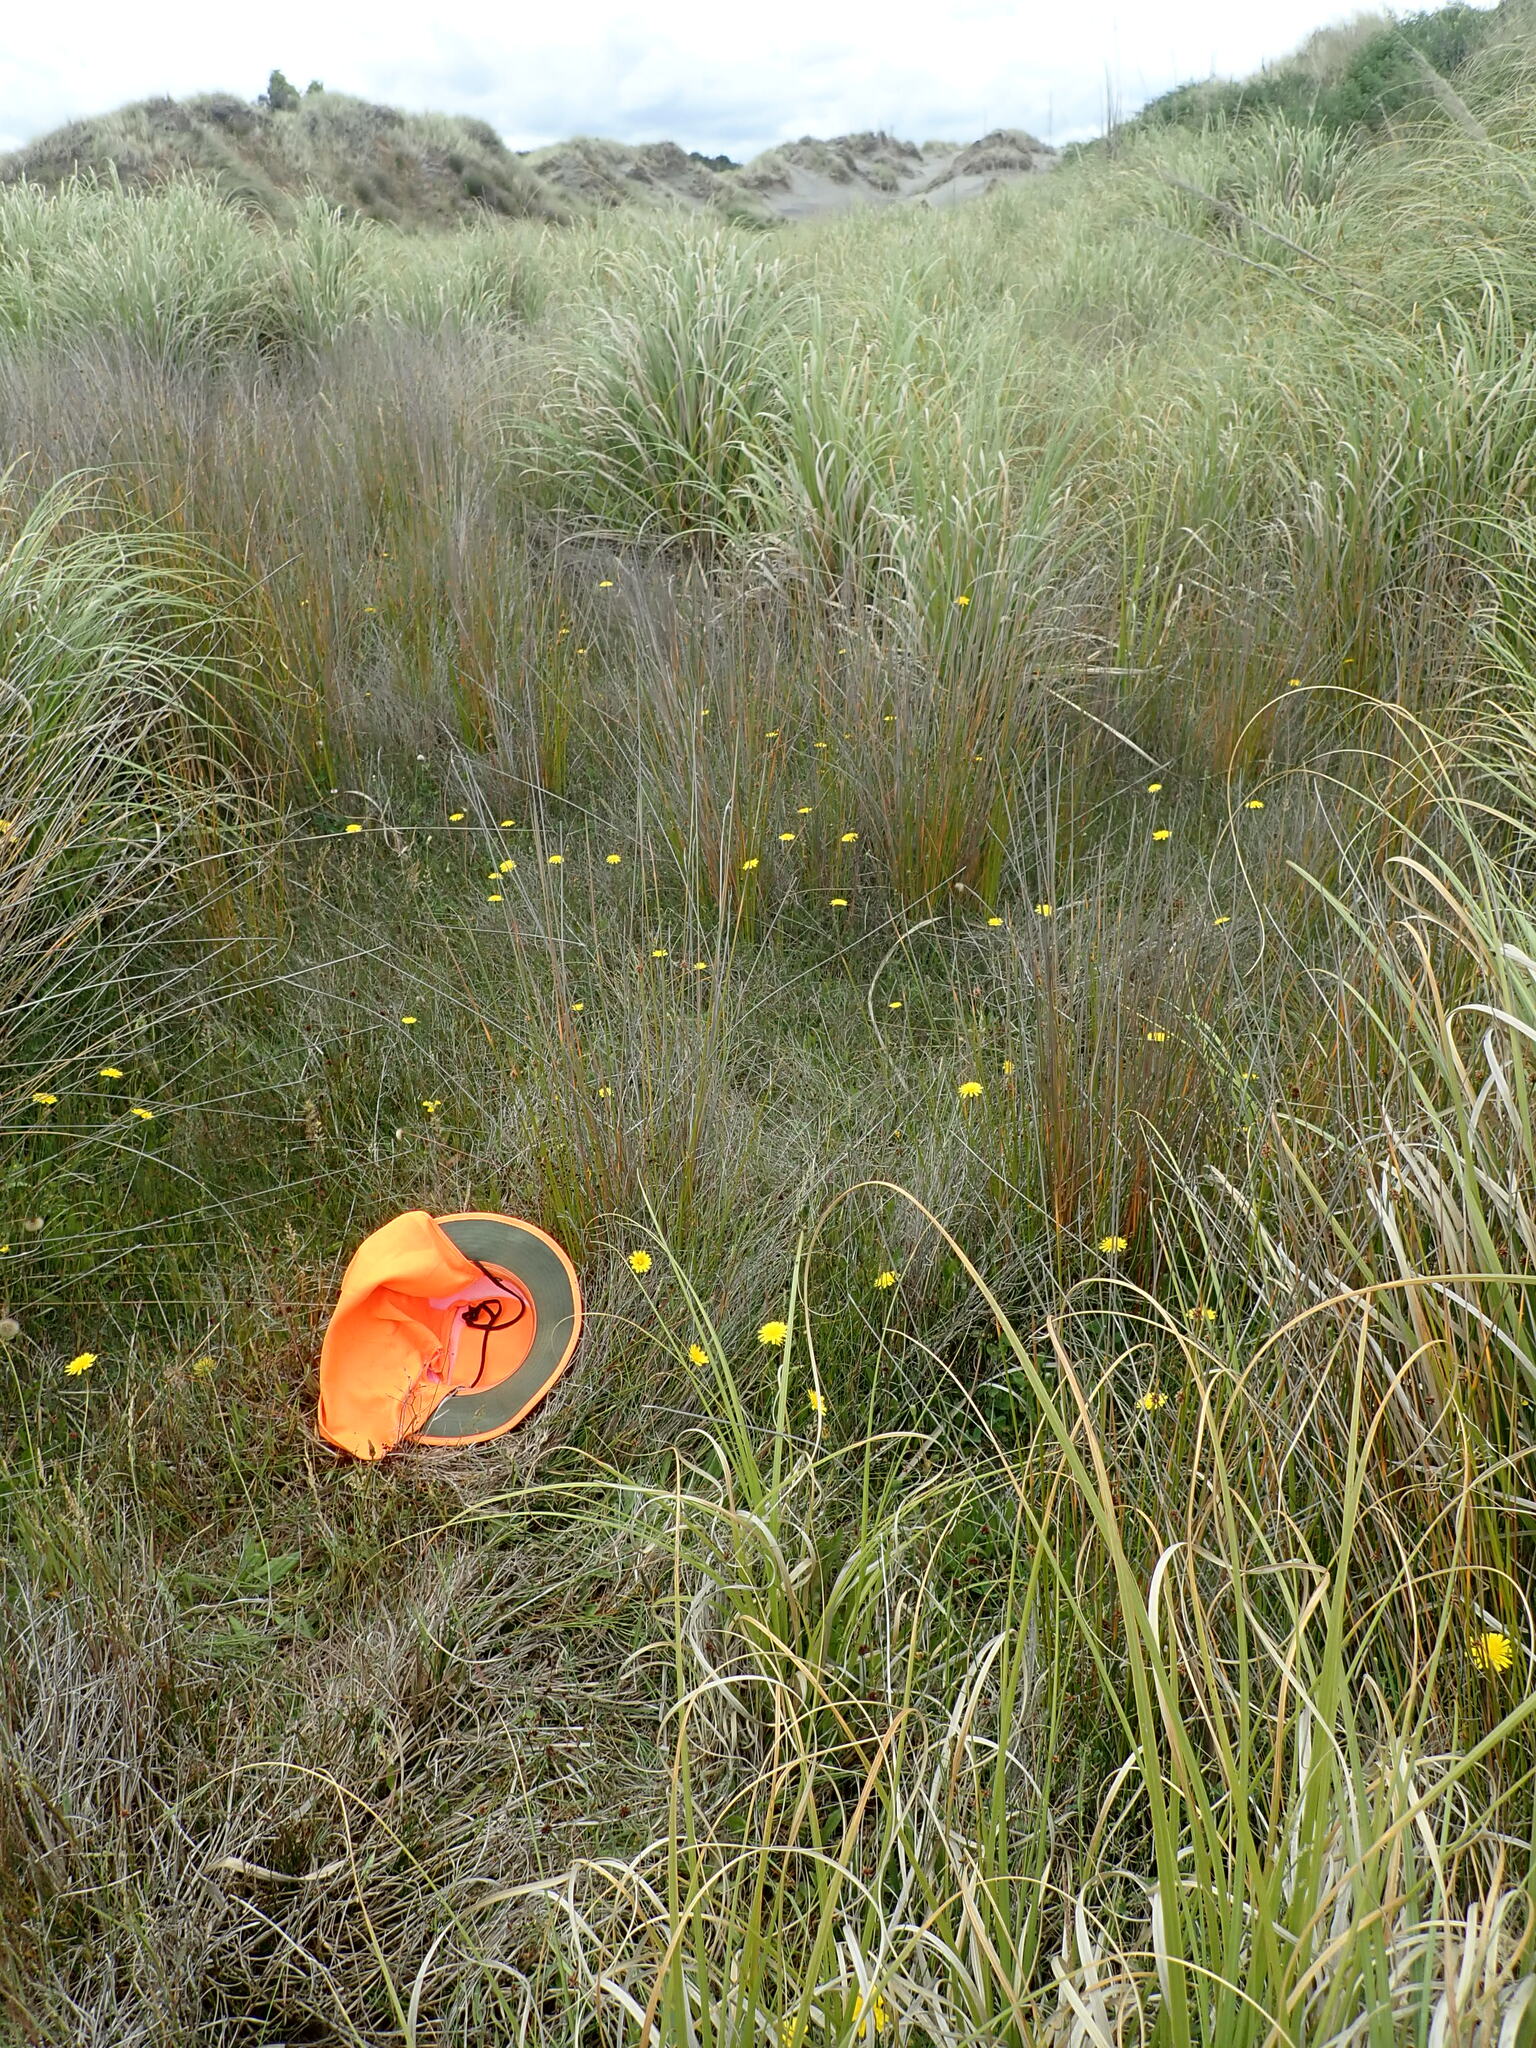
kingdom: Plantae
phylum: Tracheophyta
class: Liliopsida
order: Poales
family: Juncaceae
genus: Juncus
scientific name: Juncus caespiticius
